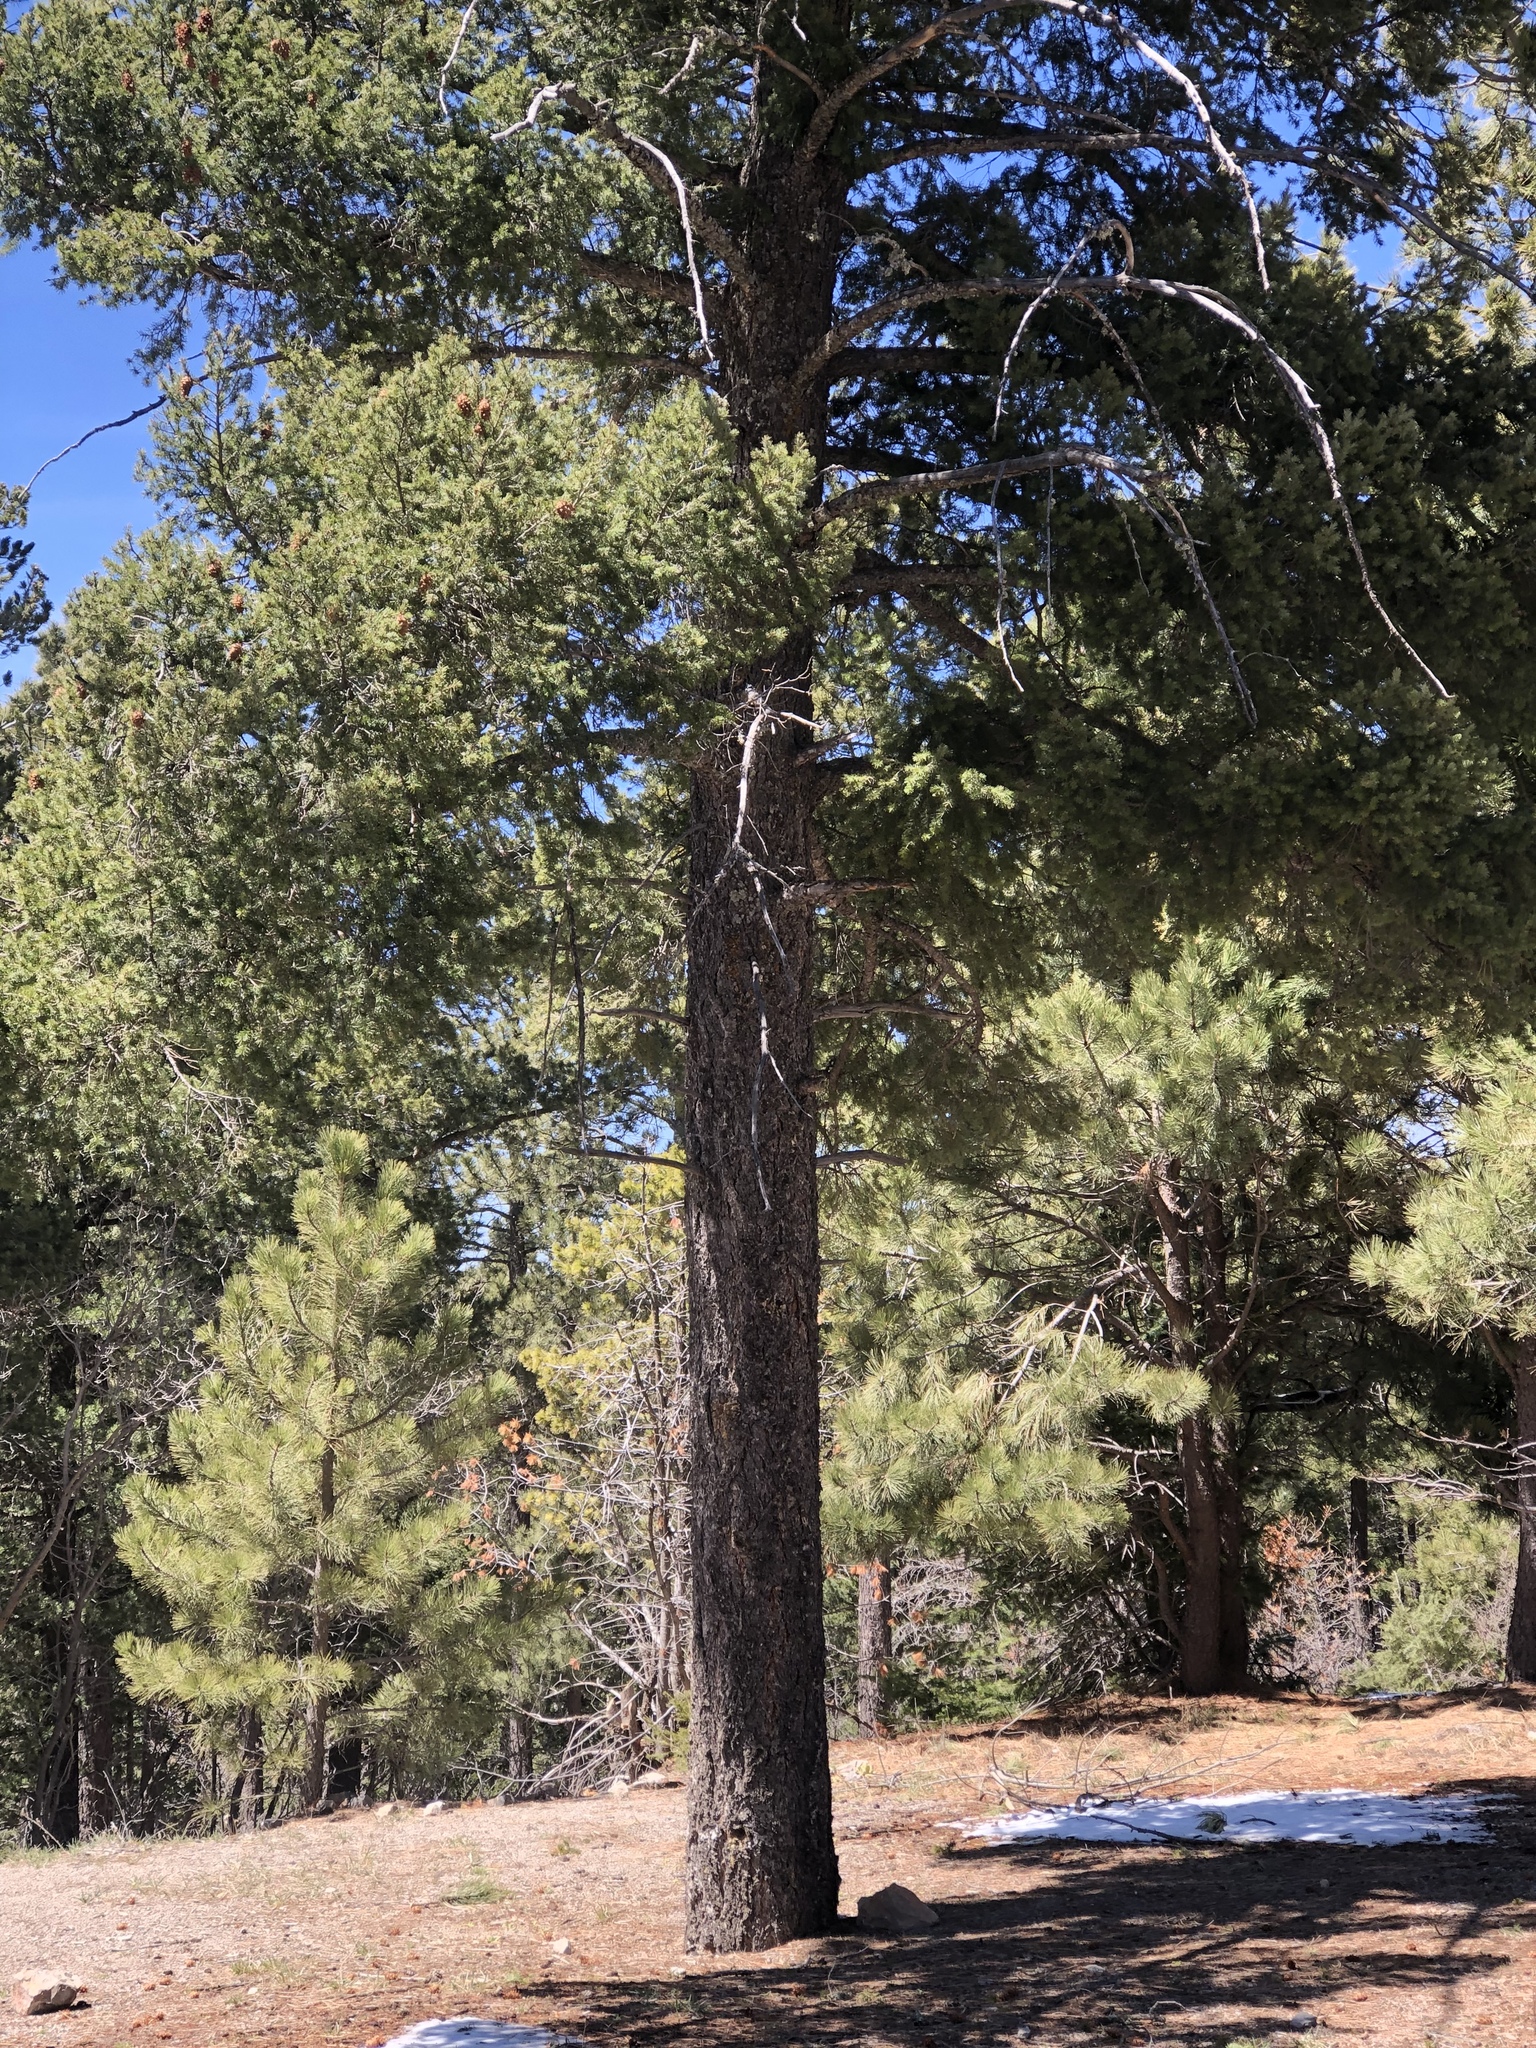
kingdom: Plantae
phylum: Tracheophyta
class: Pinopsida
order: Pinales
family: Pinaceae
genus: Pseudotsuga
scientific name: Pseudotsuga menziesii
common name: Douglas fir
